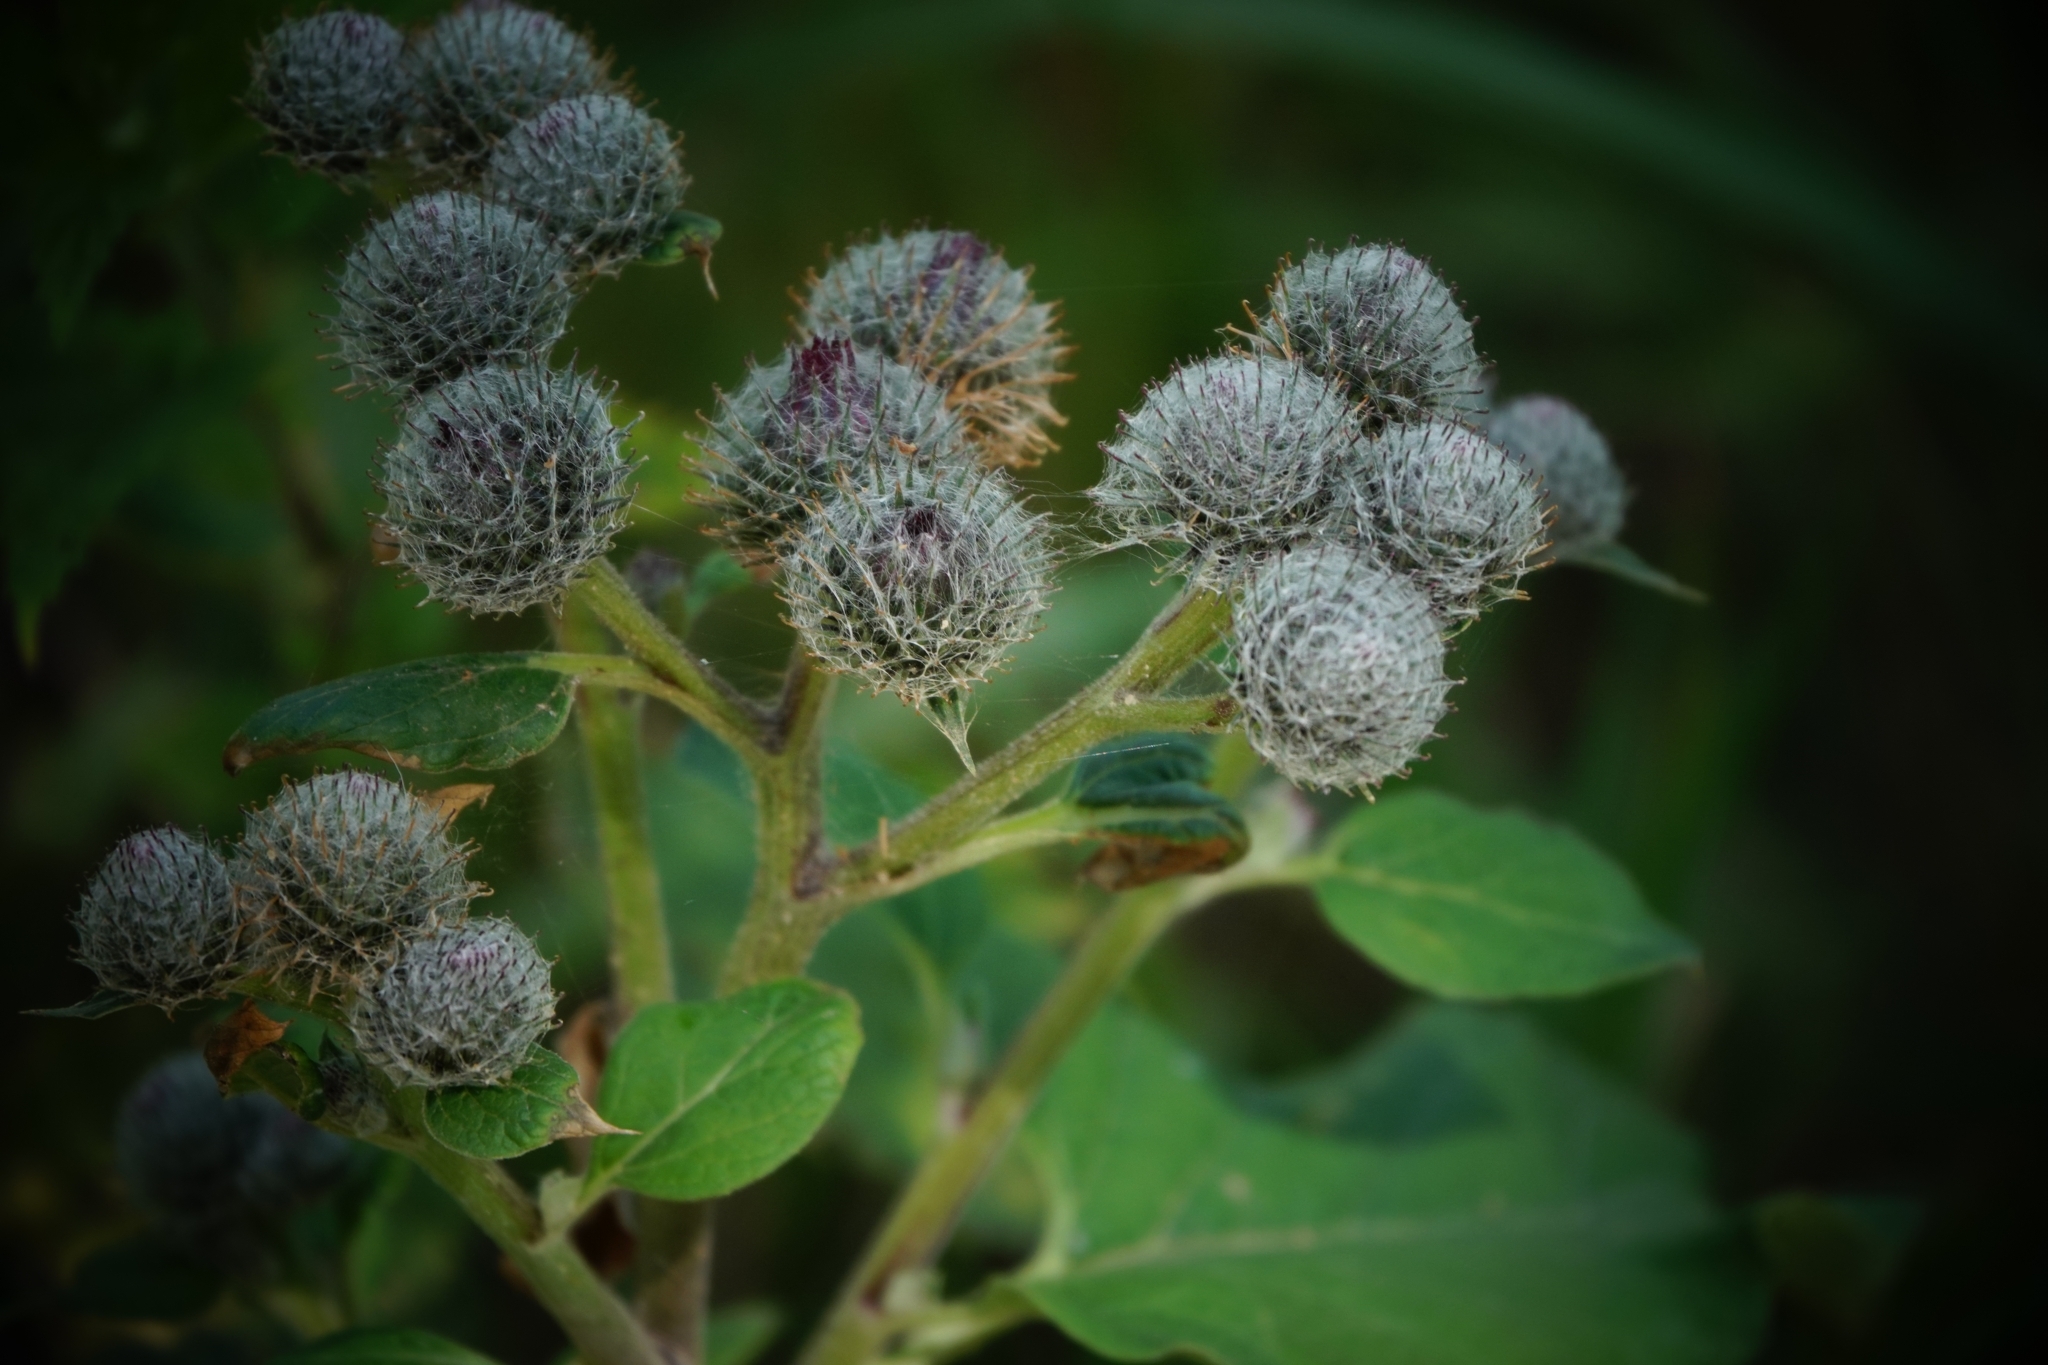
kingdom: Plantae
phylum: Tracheophyta
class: Magnoliopsida
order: Asterales
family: Asteraceae
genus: Arctium
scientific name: Arctium tomentosum
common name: Woolly burdock
